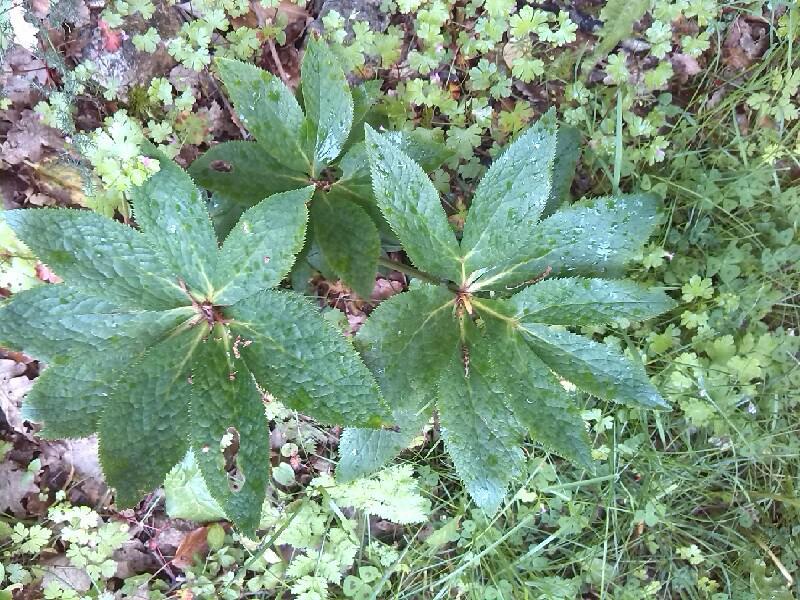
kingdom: Plantae
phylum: Tracheophyta
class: Magnoliopsida
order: Ranunculales
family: Ranunculaceae
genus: Helleborus
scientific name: Helleborus odorus
